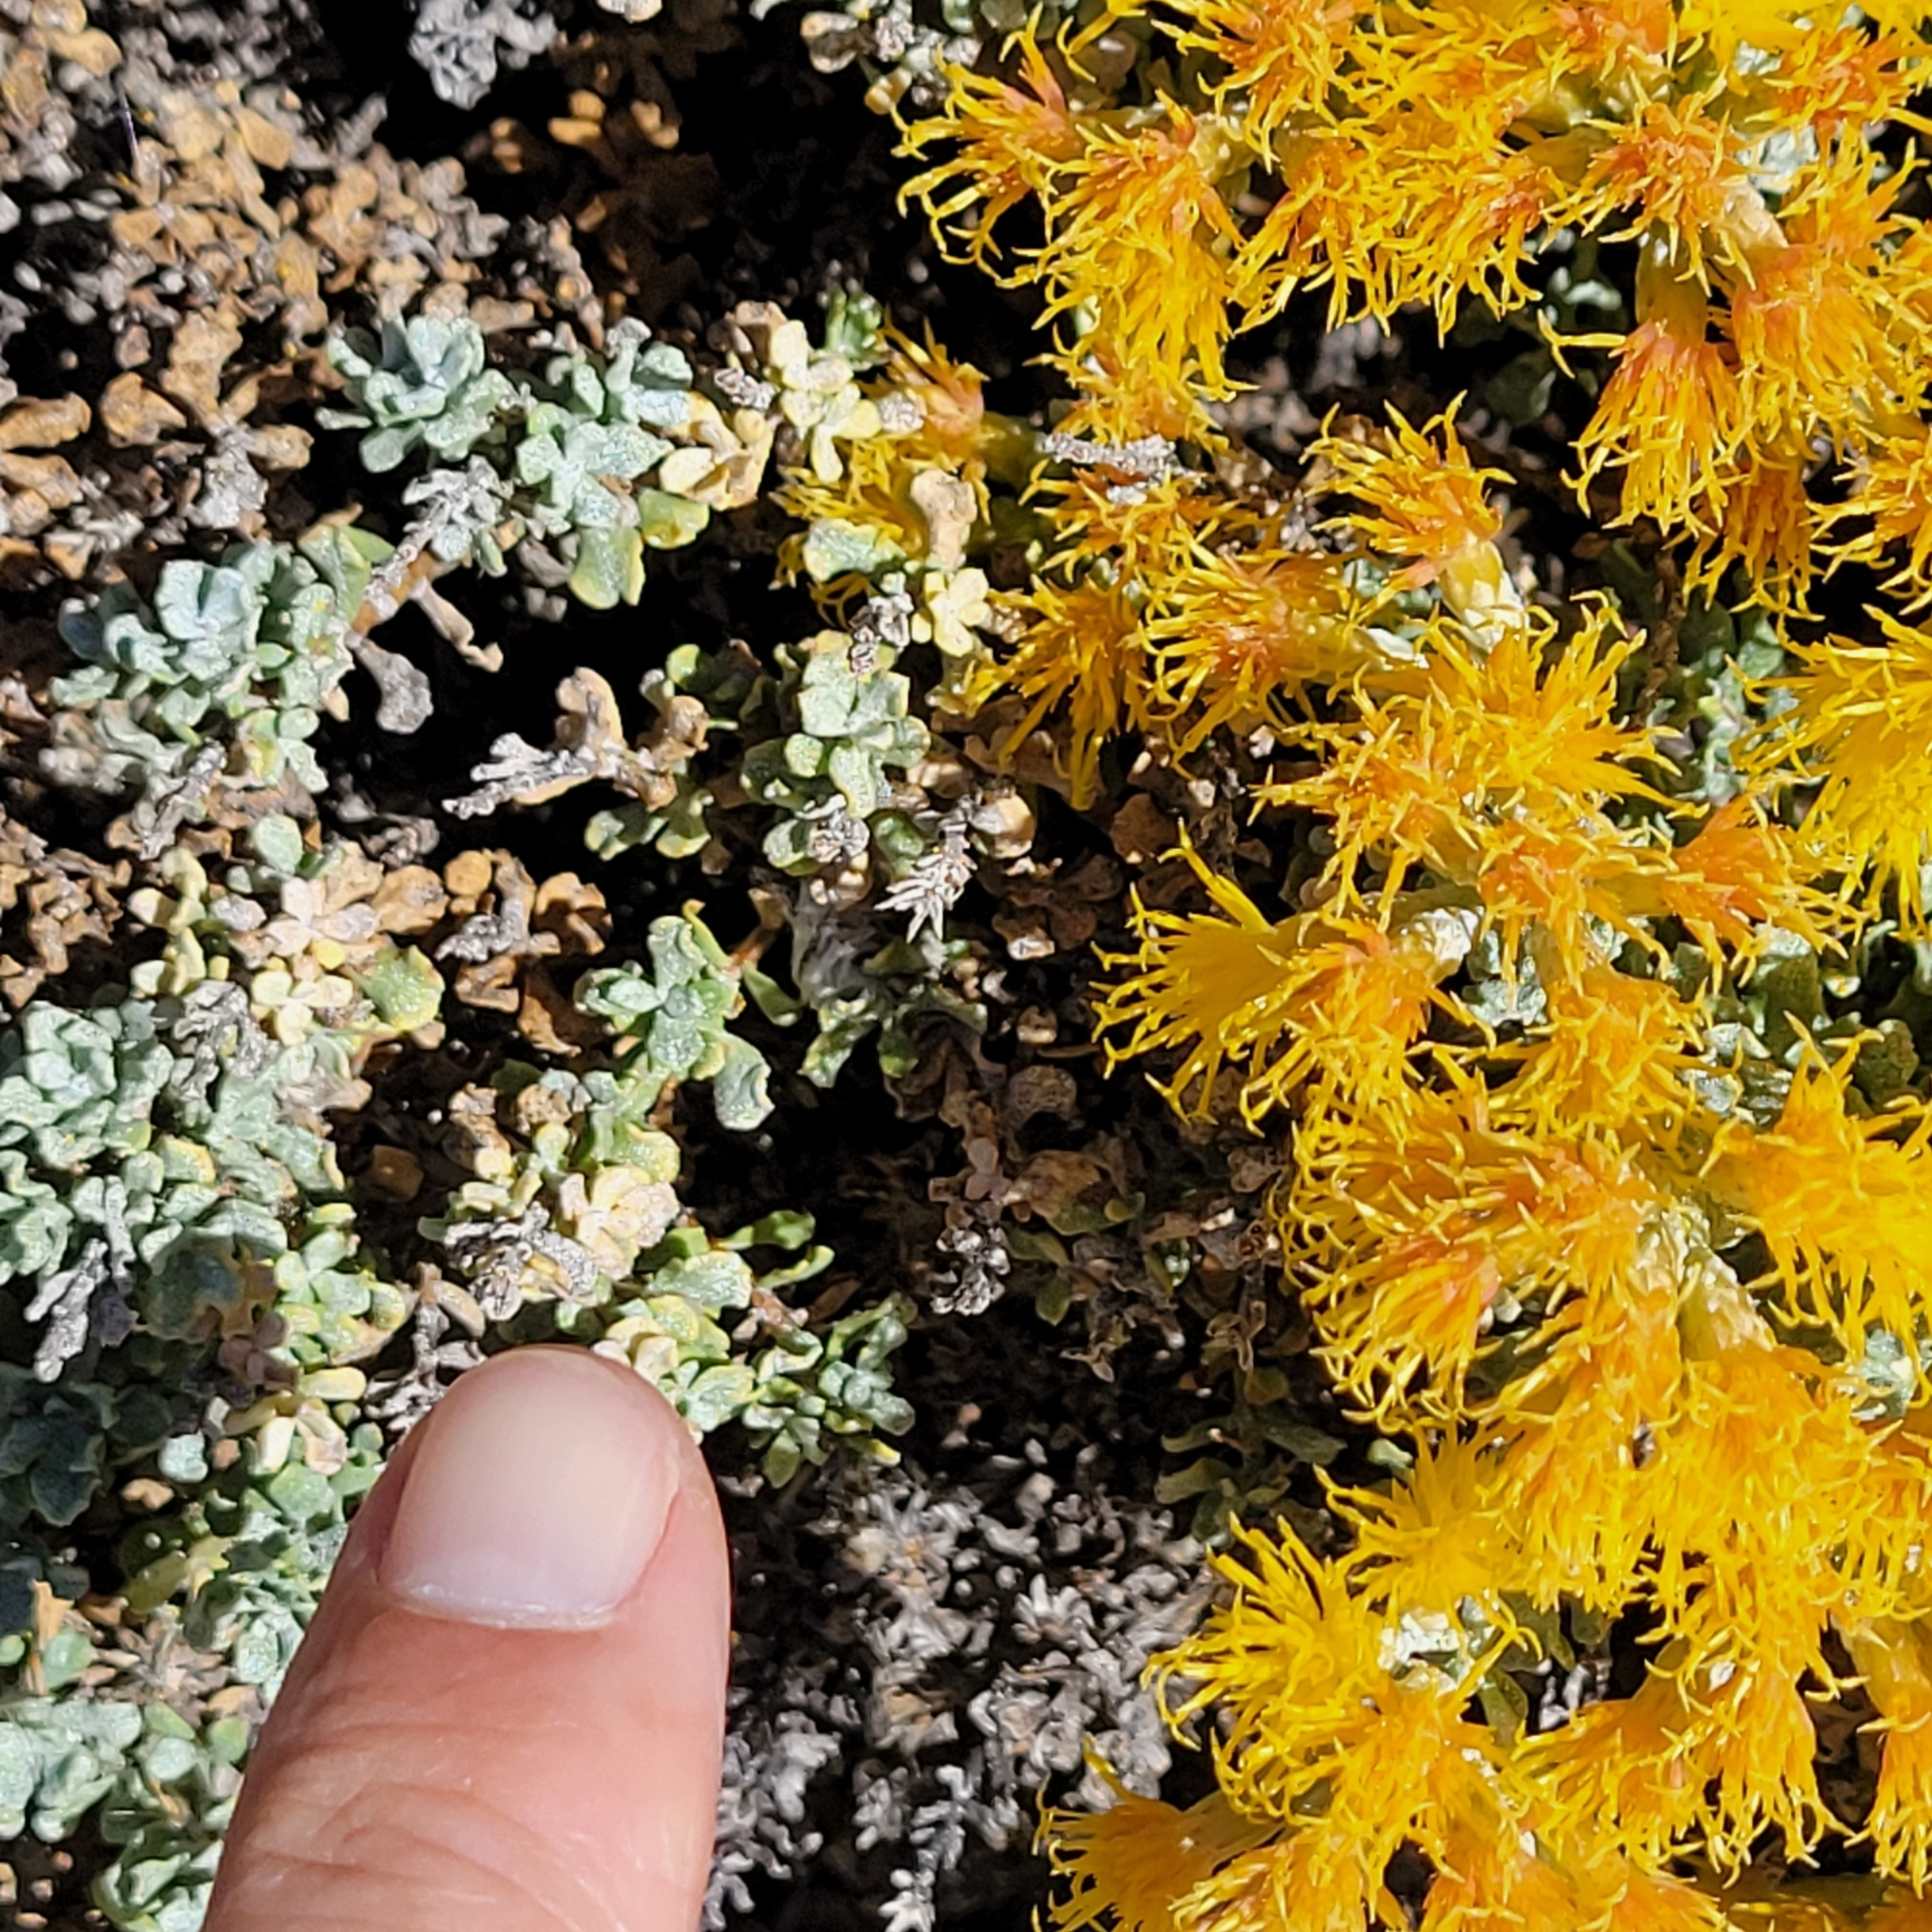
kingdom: Plantae
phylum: Tracheophyta
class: Magnoliopsida
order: Asterales
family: Asteraceae
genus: Ericameria
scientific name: Ericameria cuneata
